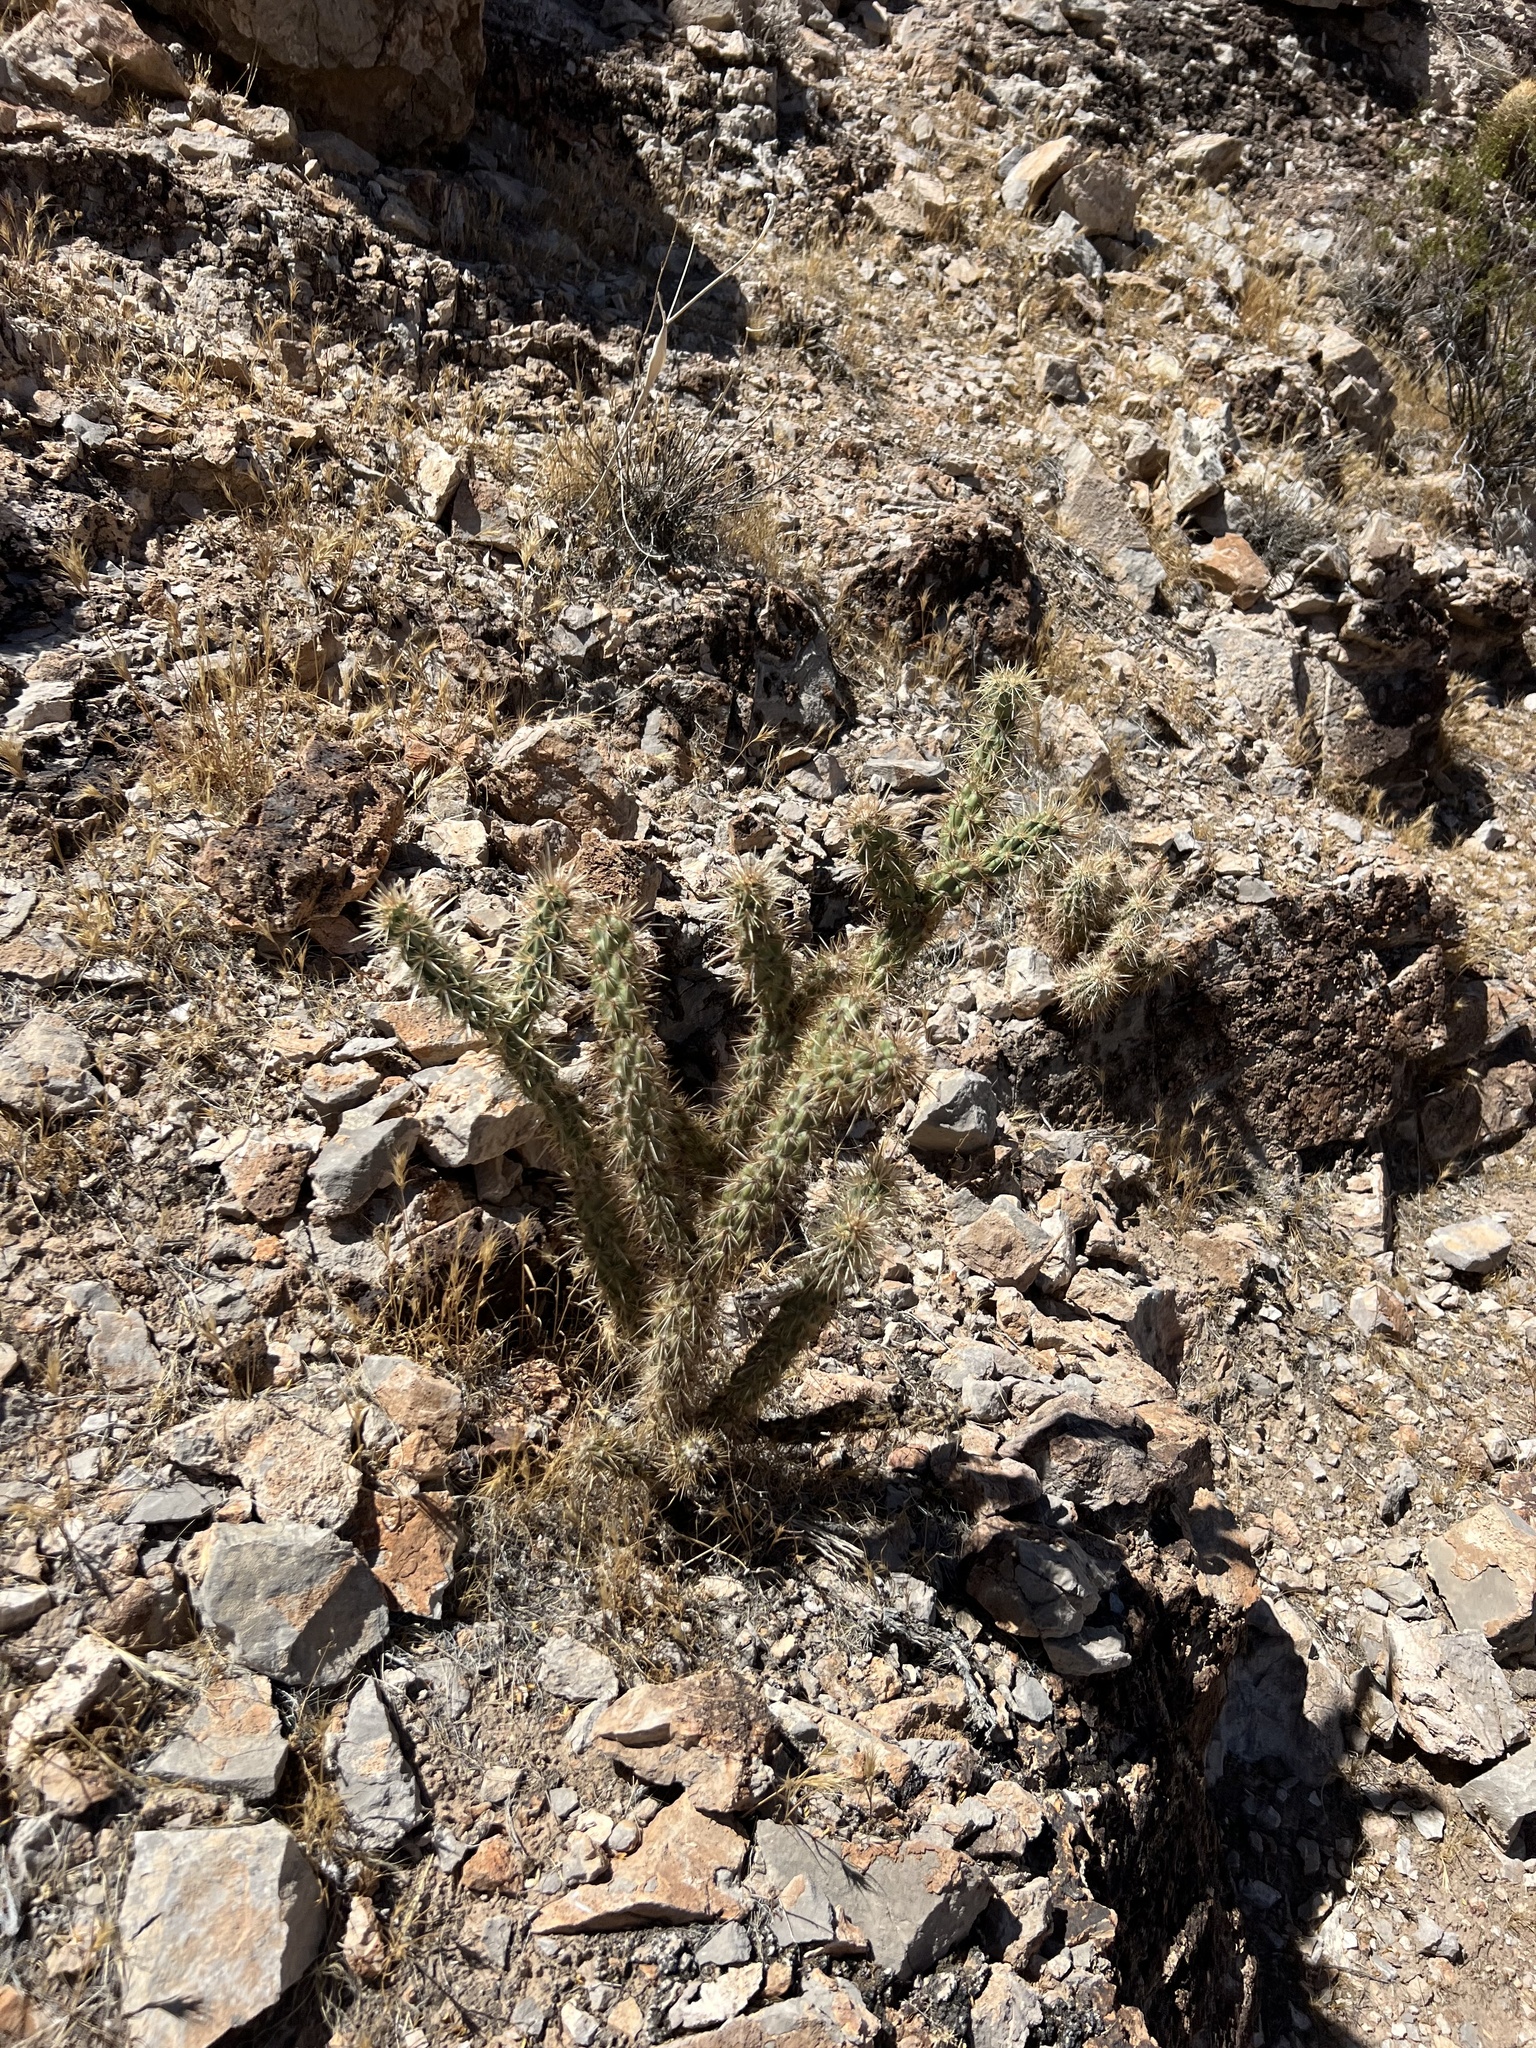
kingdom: Plantae
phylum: Tracheophyta
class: Magnoliopsida
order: Caryophyllales
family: Cactaceae
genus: Cylindropuntia
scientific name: Cylindropuntia acanthocarpa
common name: Buckhorn cholla
